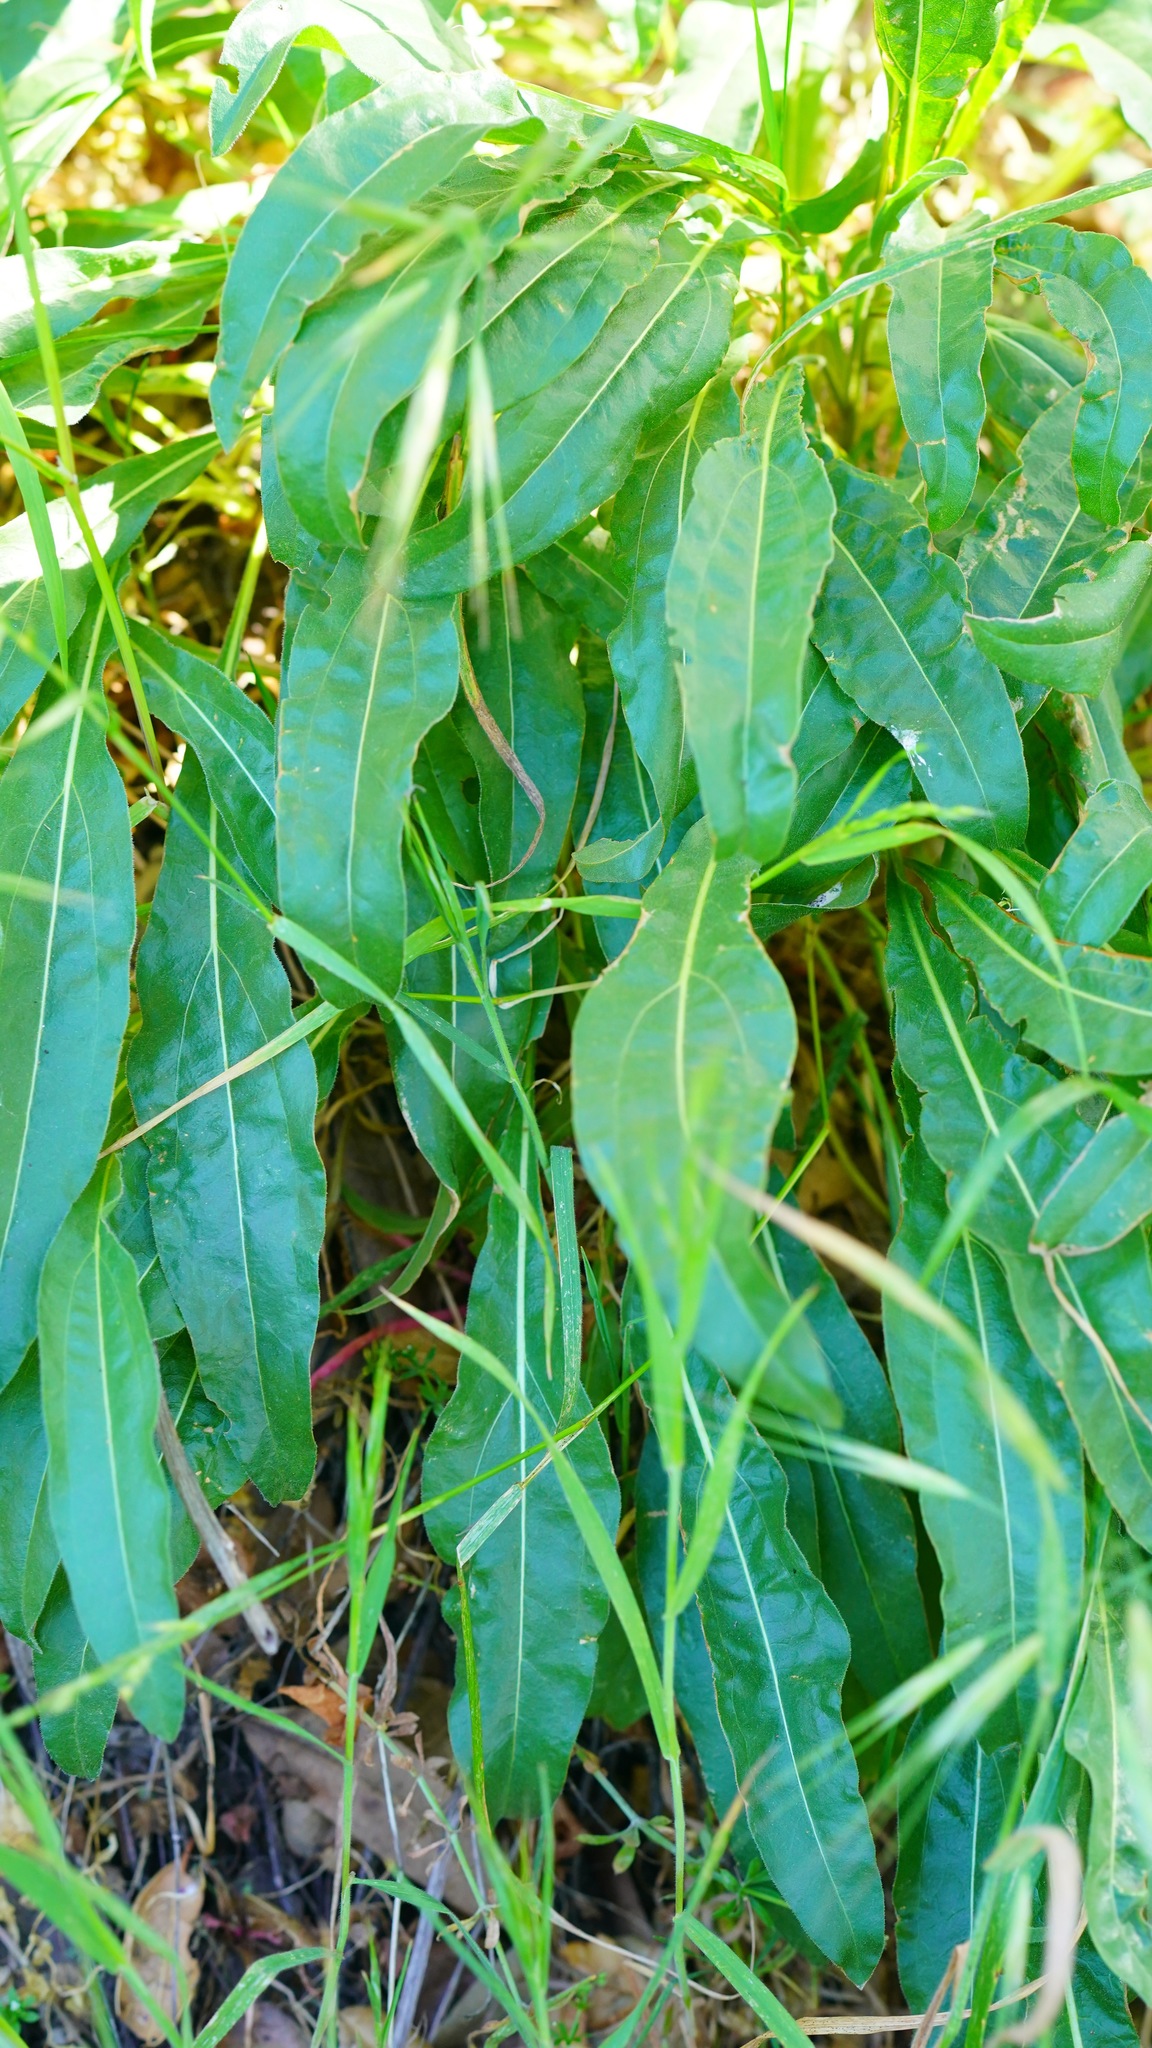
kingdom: Plantae
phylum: Tracheophyta
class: Magnoliopsida
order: Asterales
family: Asteraceae
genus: Helianthella
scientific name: Helianthella castanea
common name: Diablo helianthella
